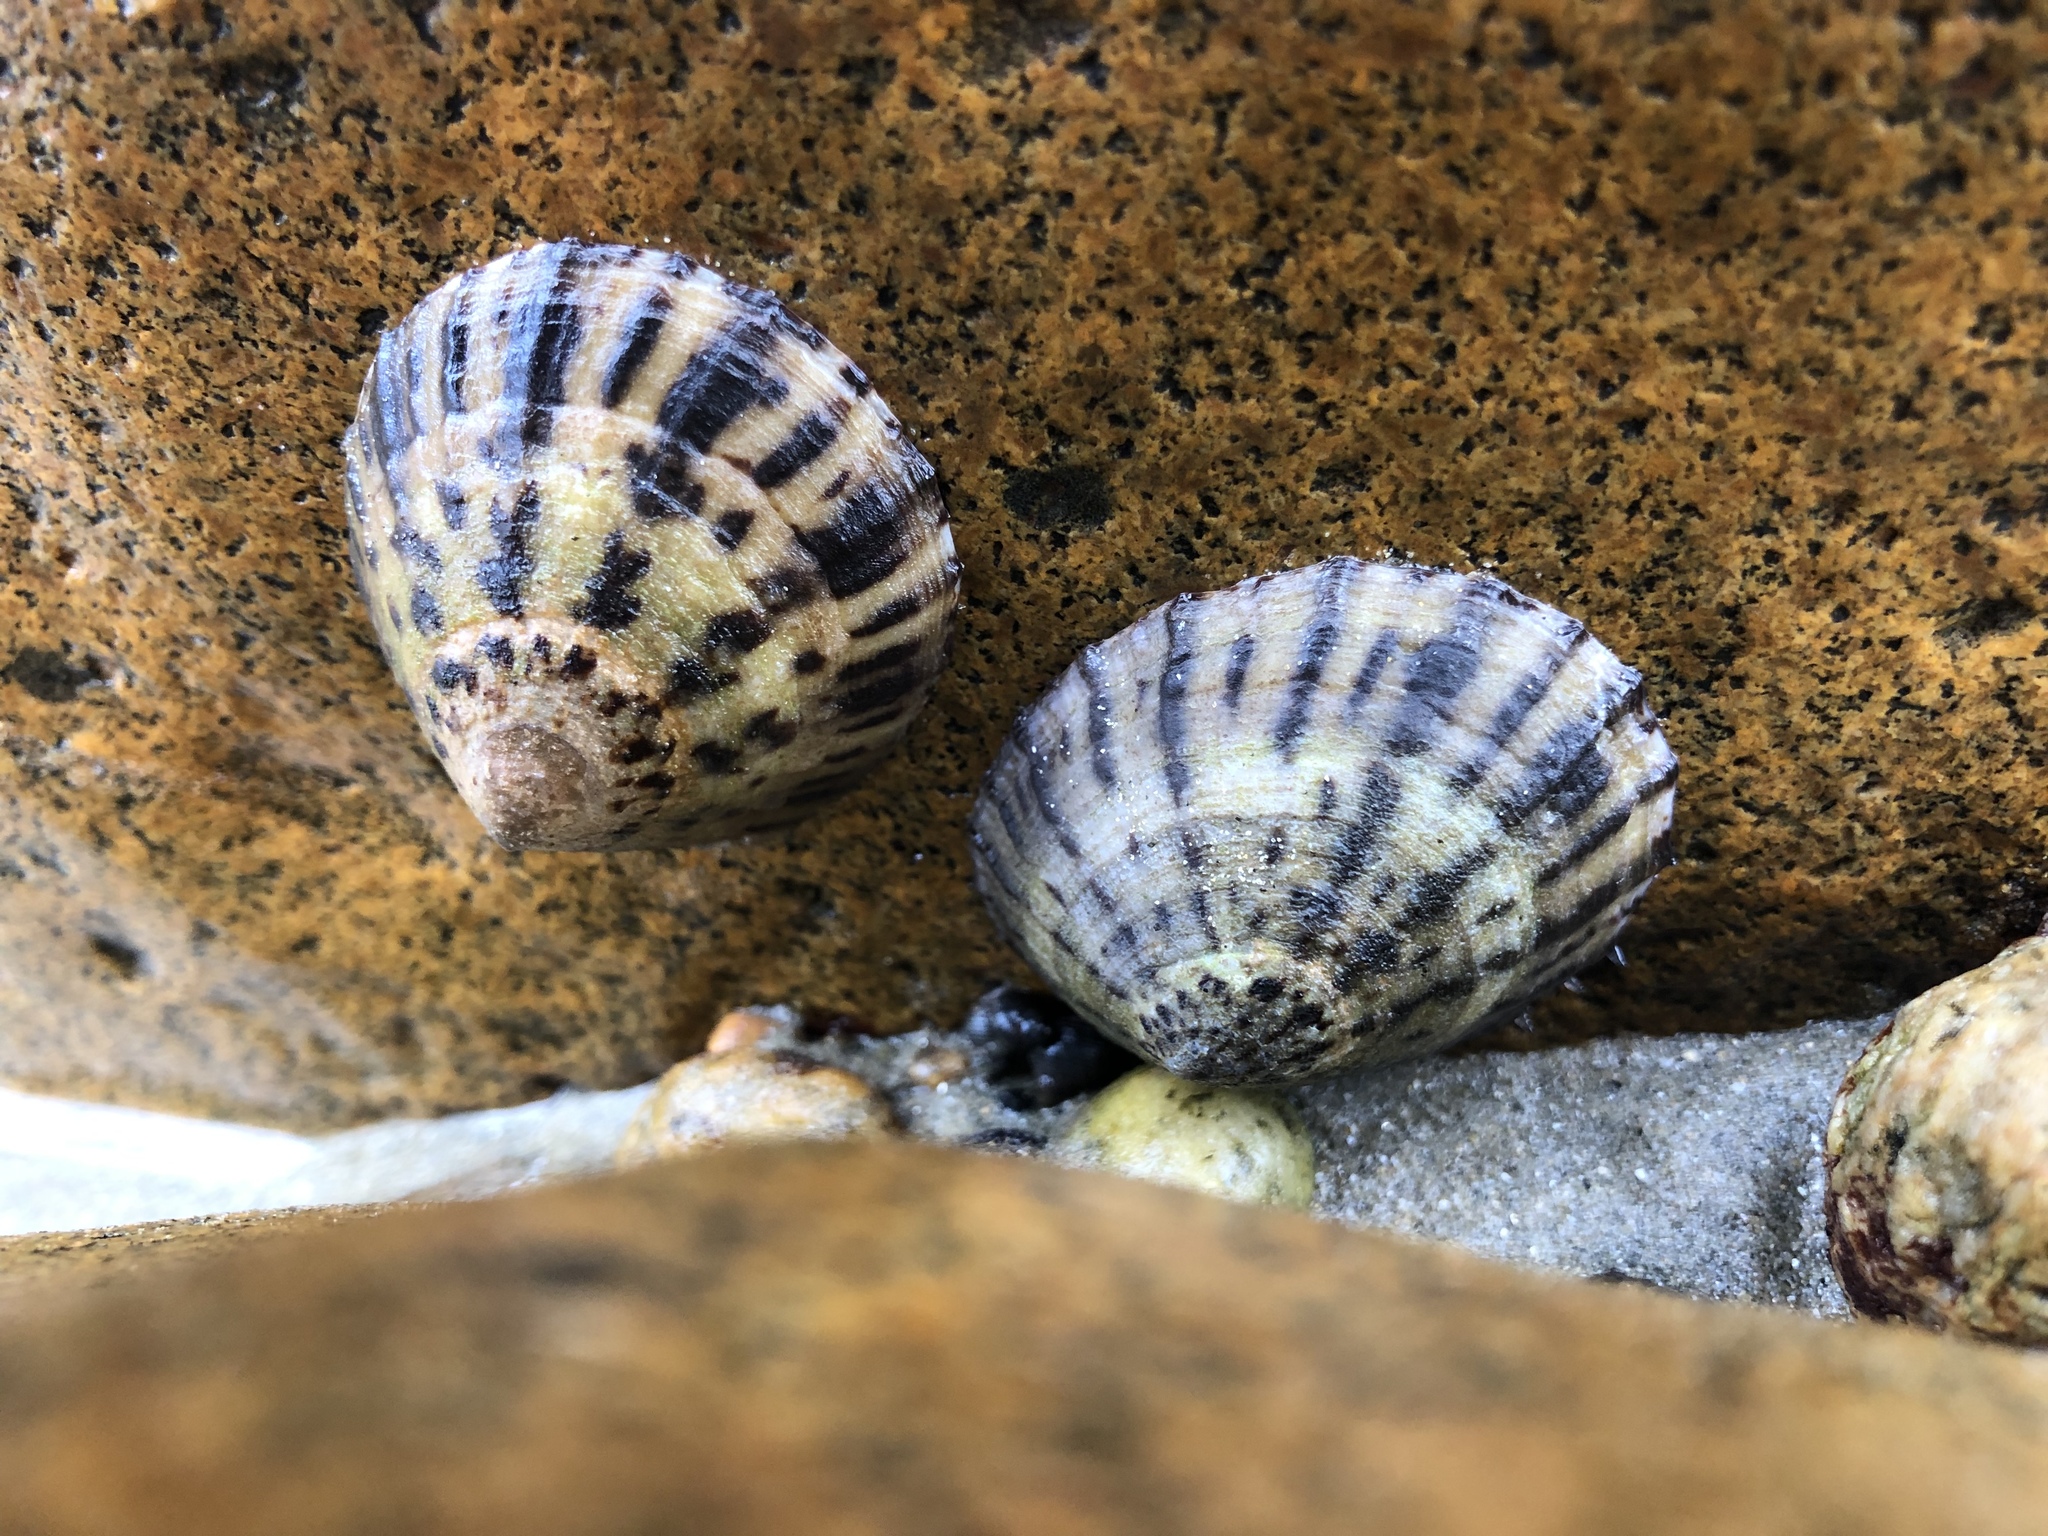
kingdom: Animalia
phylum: Mollusca
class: Gastropoda
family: Nacellidae
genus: Cellana
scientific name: Cellana radians
